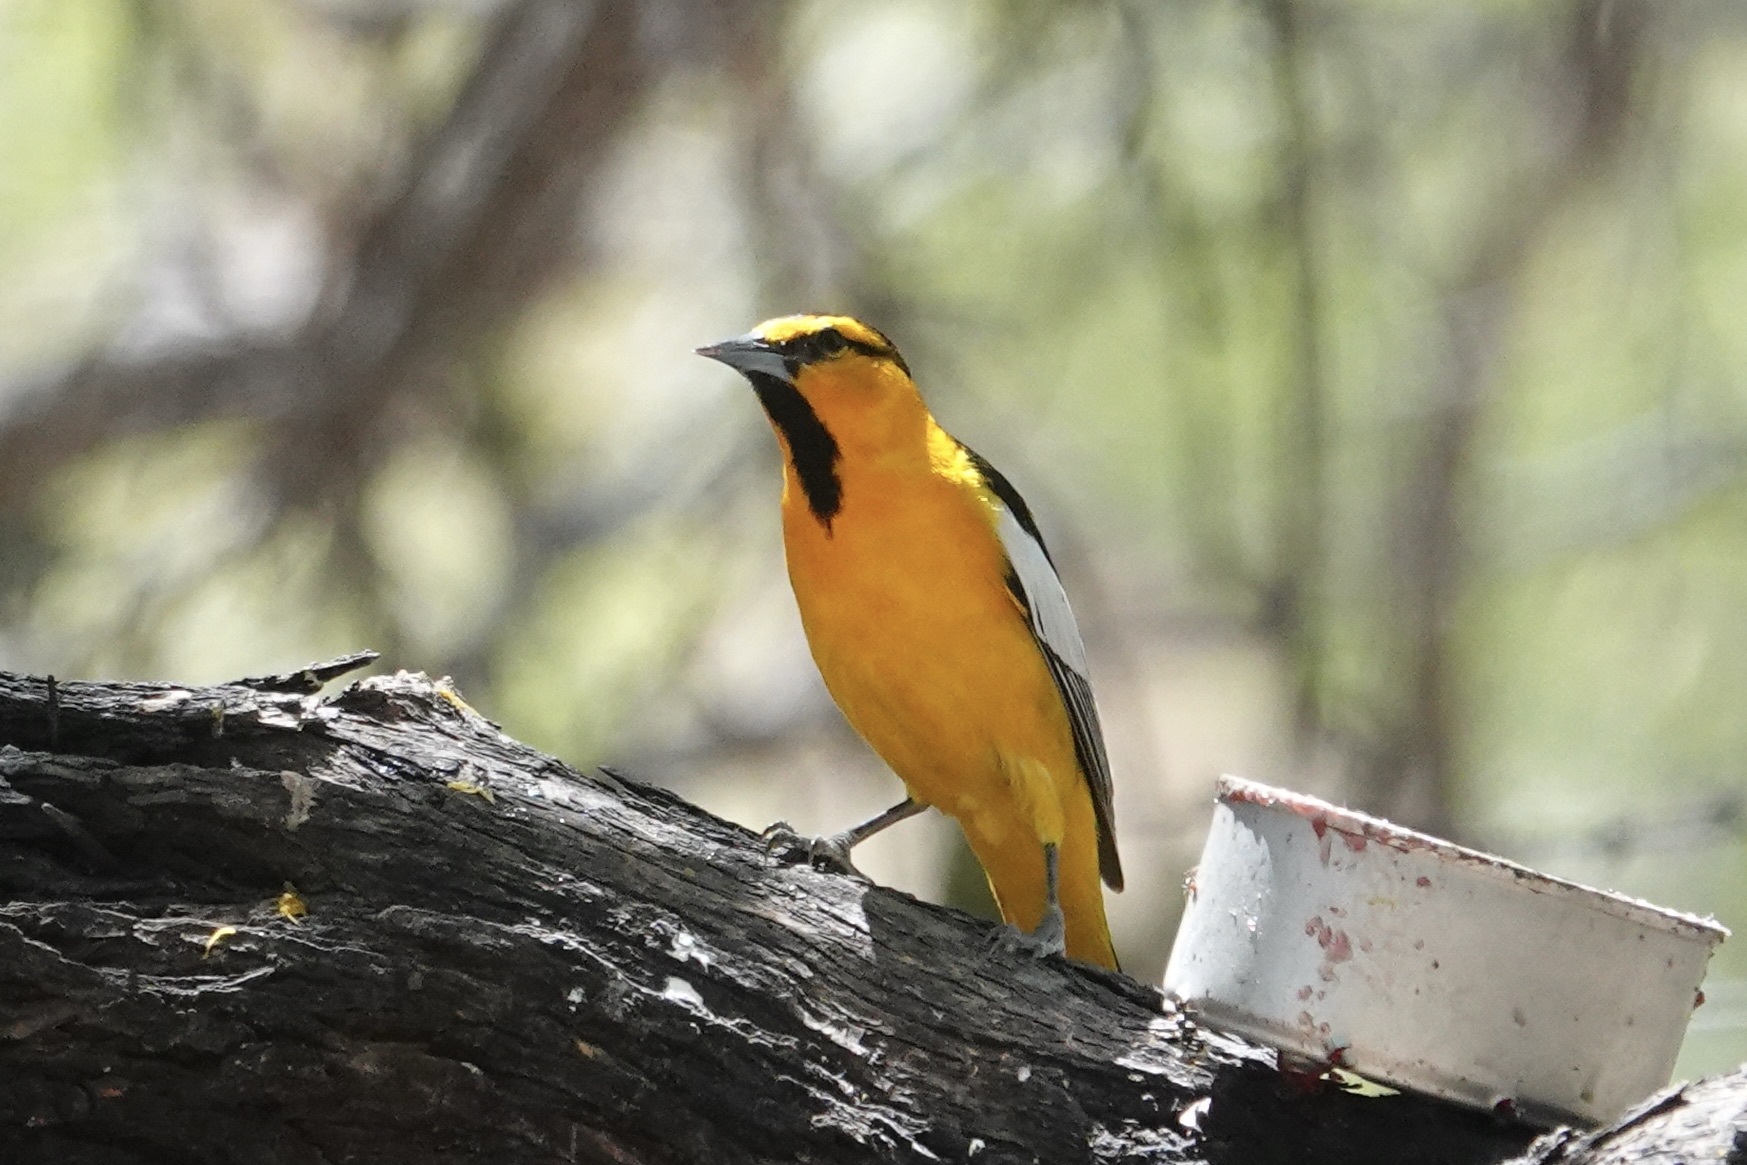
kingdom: Animalia
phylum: Chordata
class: Aves
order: Passeriformes
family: Icteridae
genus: Icterus
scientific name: Icterus bullockii
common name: Bullock's oriole
